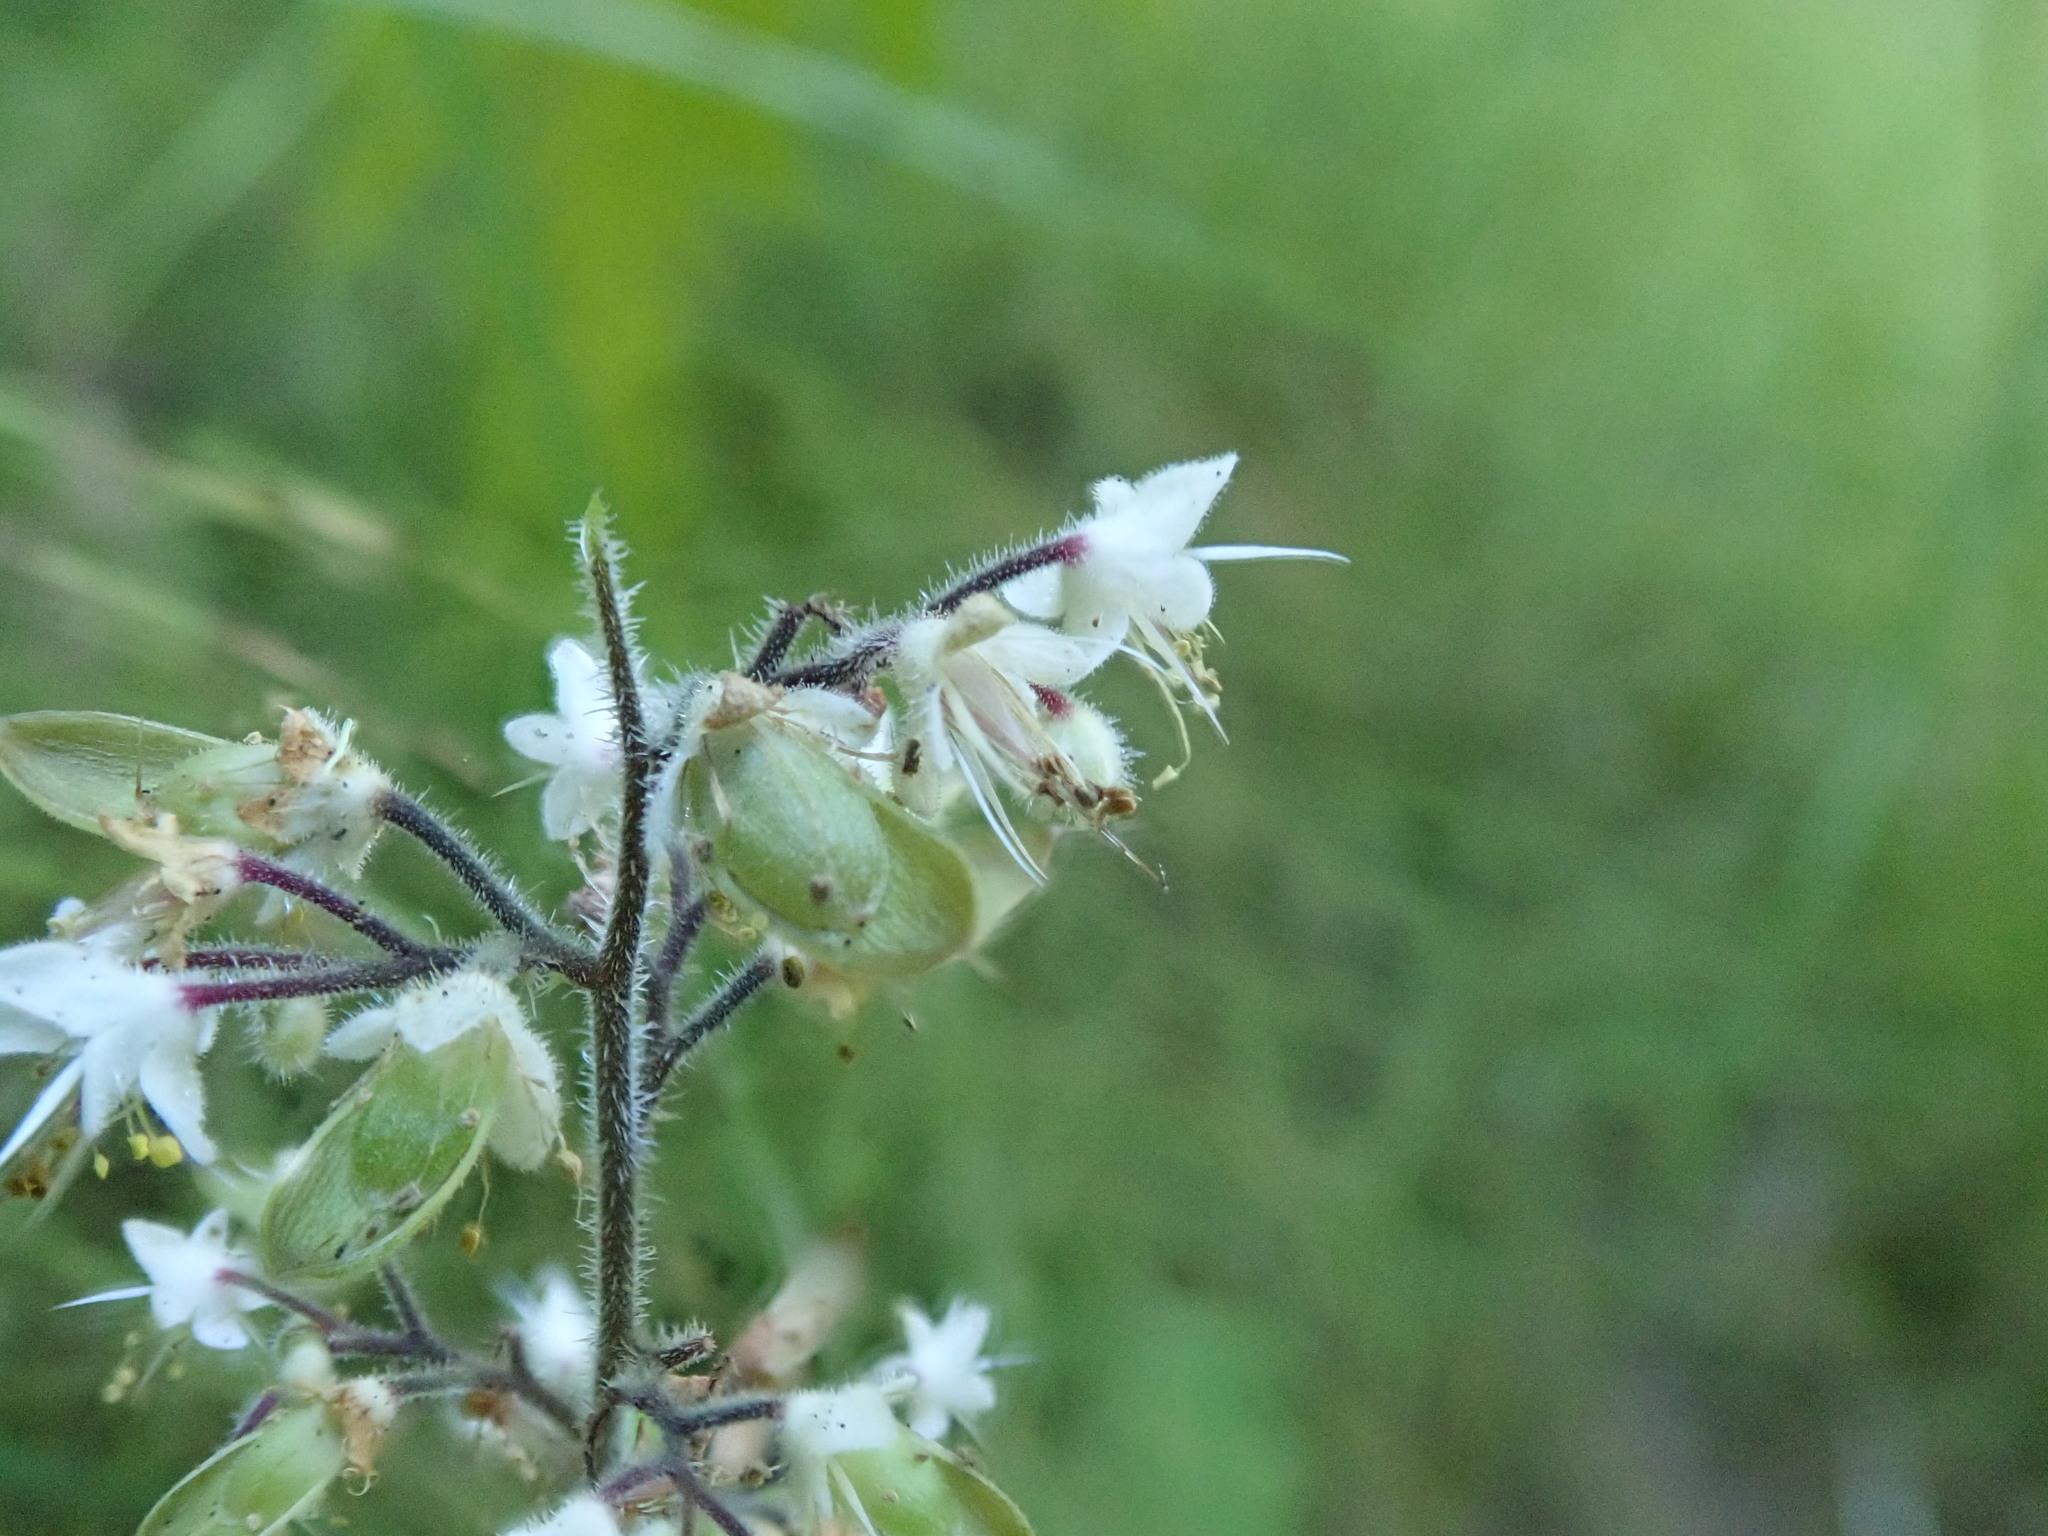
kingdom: Plantae
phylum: Tracheophyta
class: Magnoliopsida
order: Saxifragales
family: Saxifragaceae
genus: Tiarella
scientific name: Tiarella trifoliata
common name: Sugar-scoop
